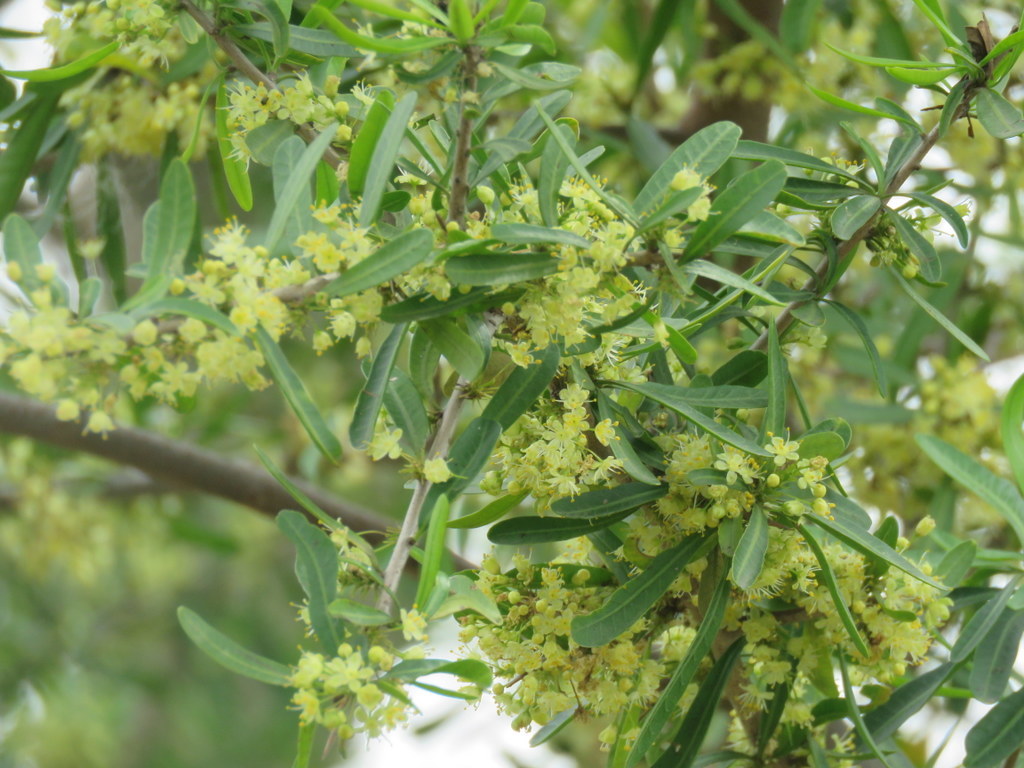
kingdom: Plantae
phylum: Tracheophyta
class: Magnoliopsida
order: Sapindales
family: Anacardiaceae
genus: Schinus
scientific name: Schinus longifolia
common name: Longleaf peppertree
